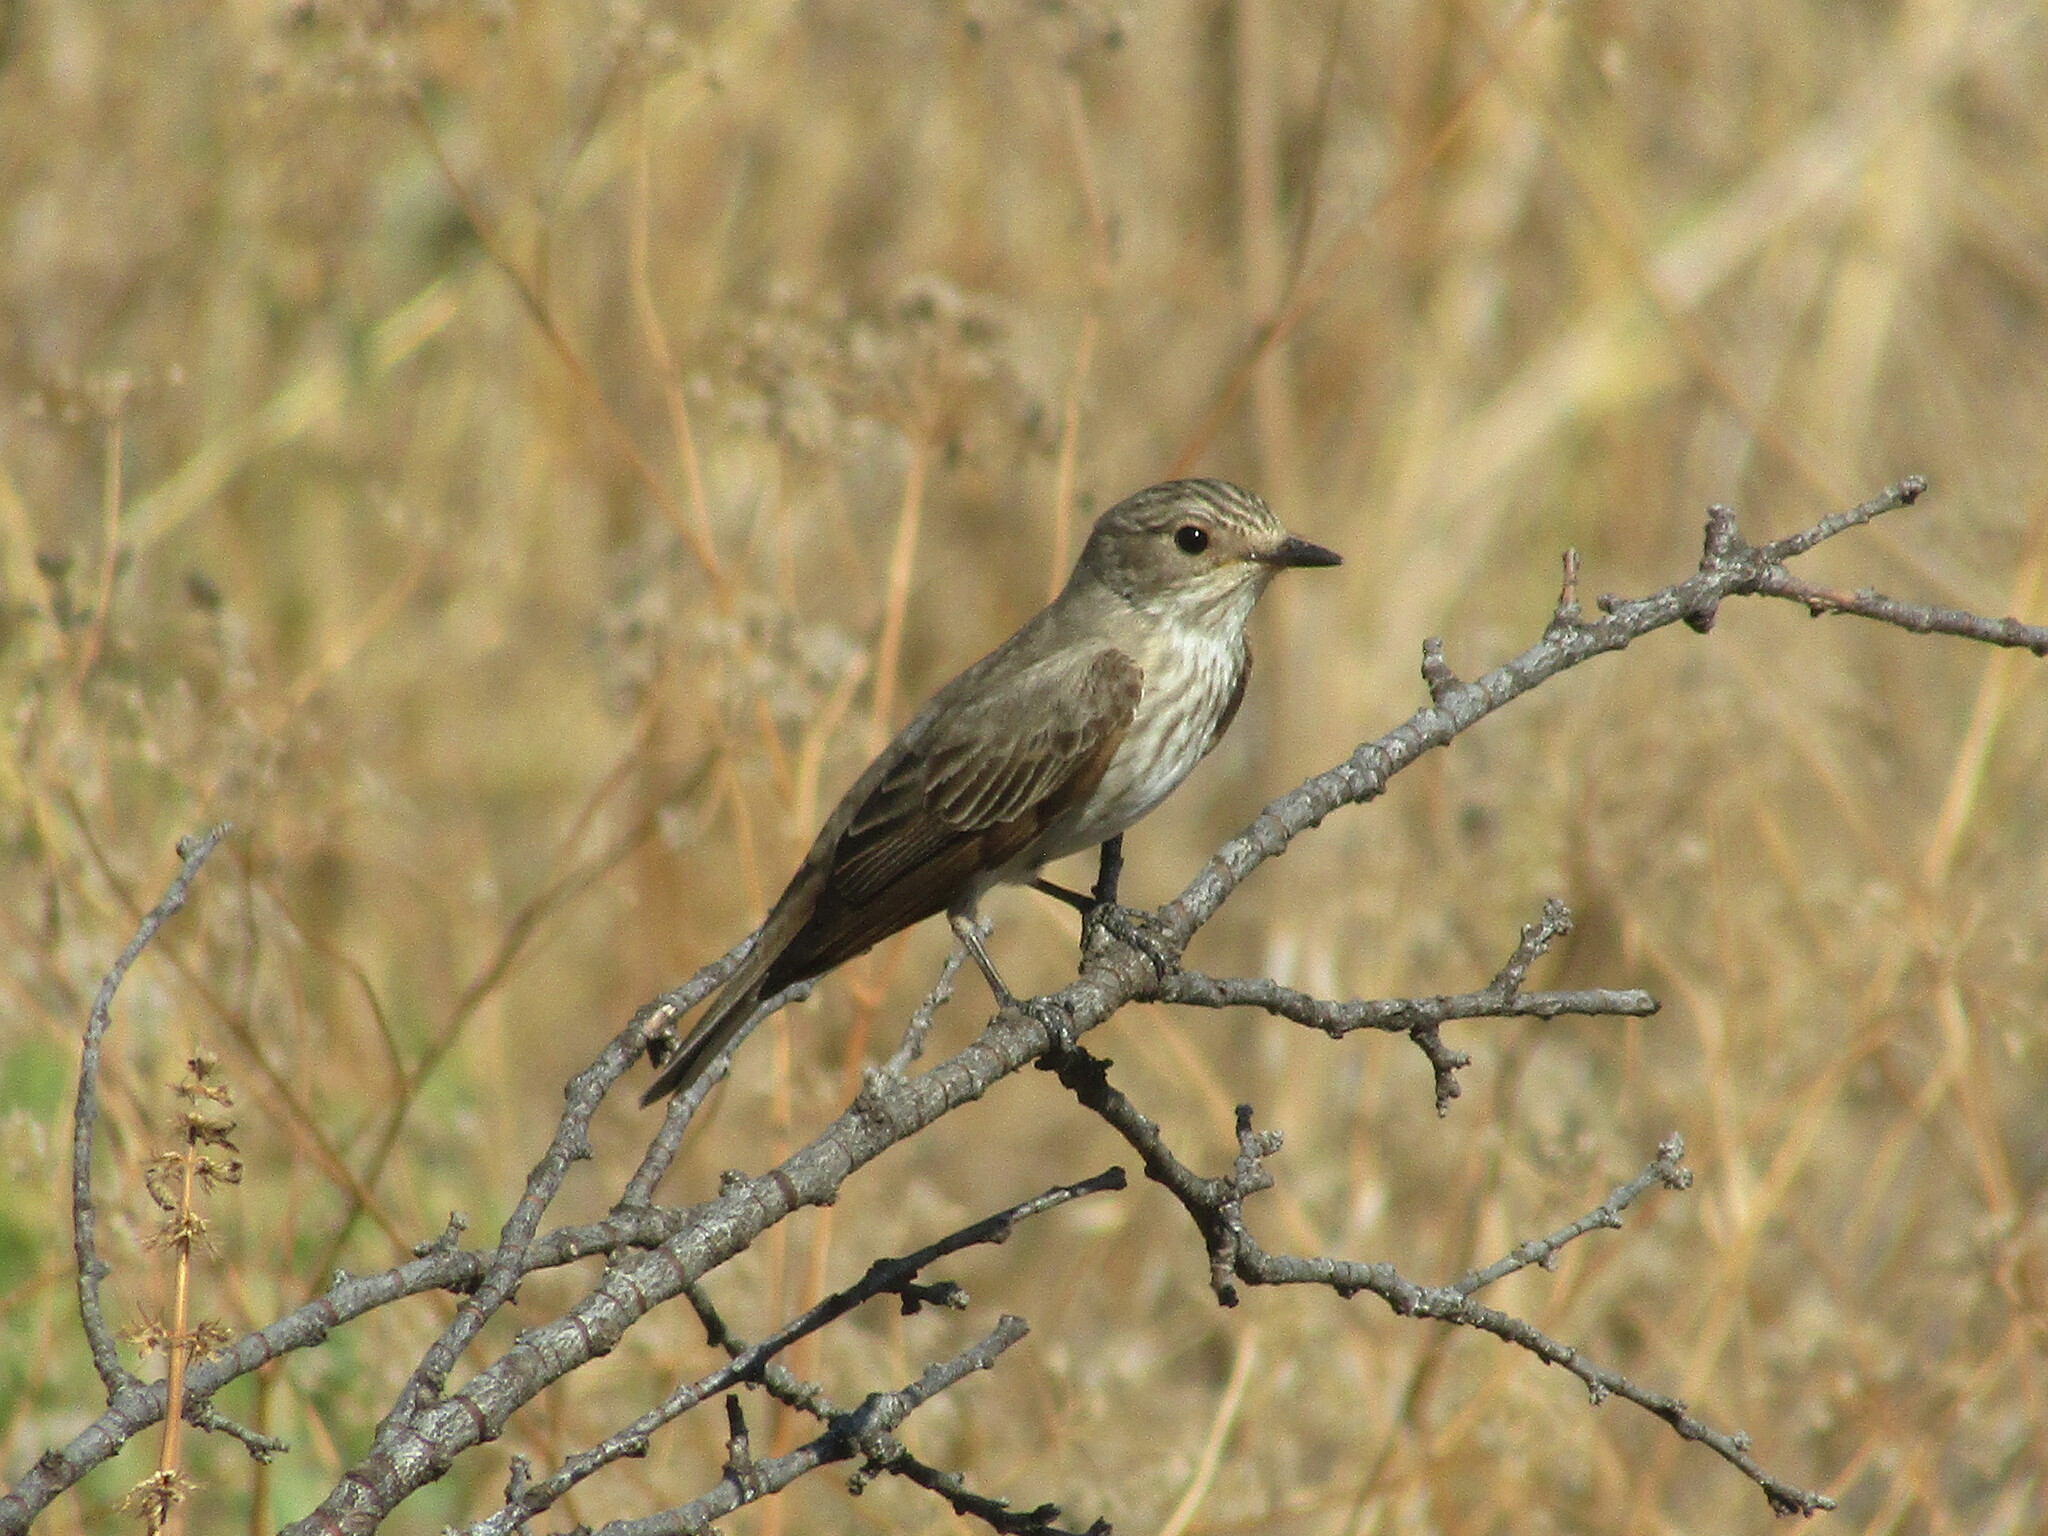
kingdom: Animalia
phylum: Chordata
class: Aves
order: Passeriformes
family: Muscicapidae
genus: Muscicapa
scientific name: Muscicapa striata
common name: Spotted flycatcher
